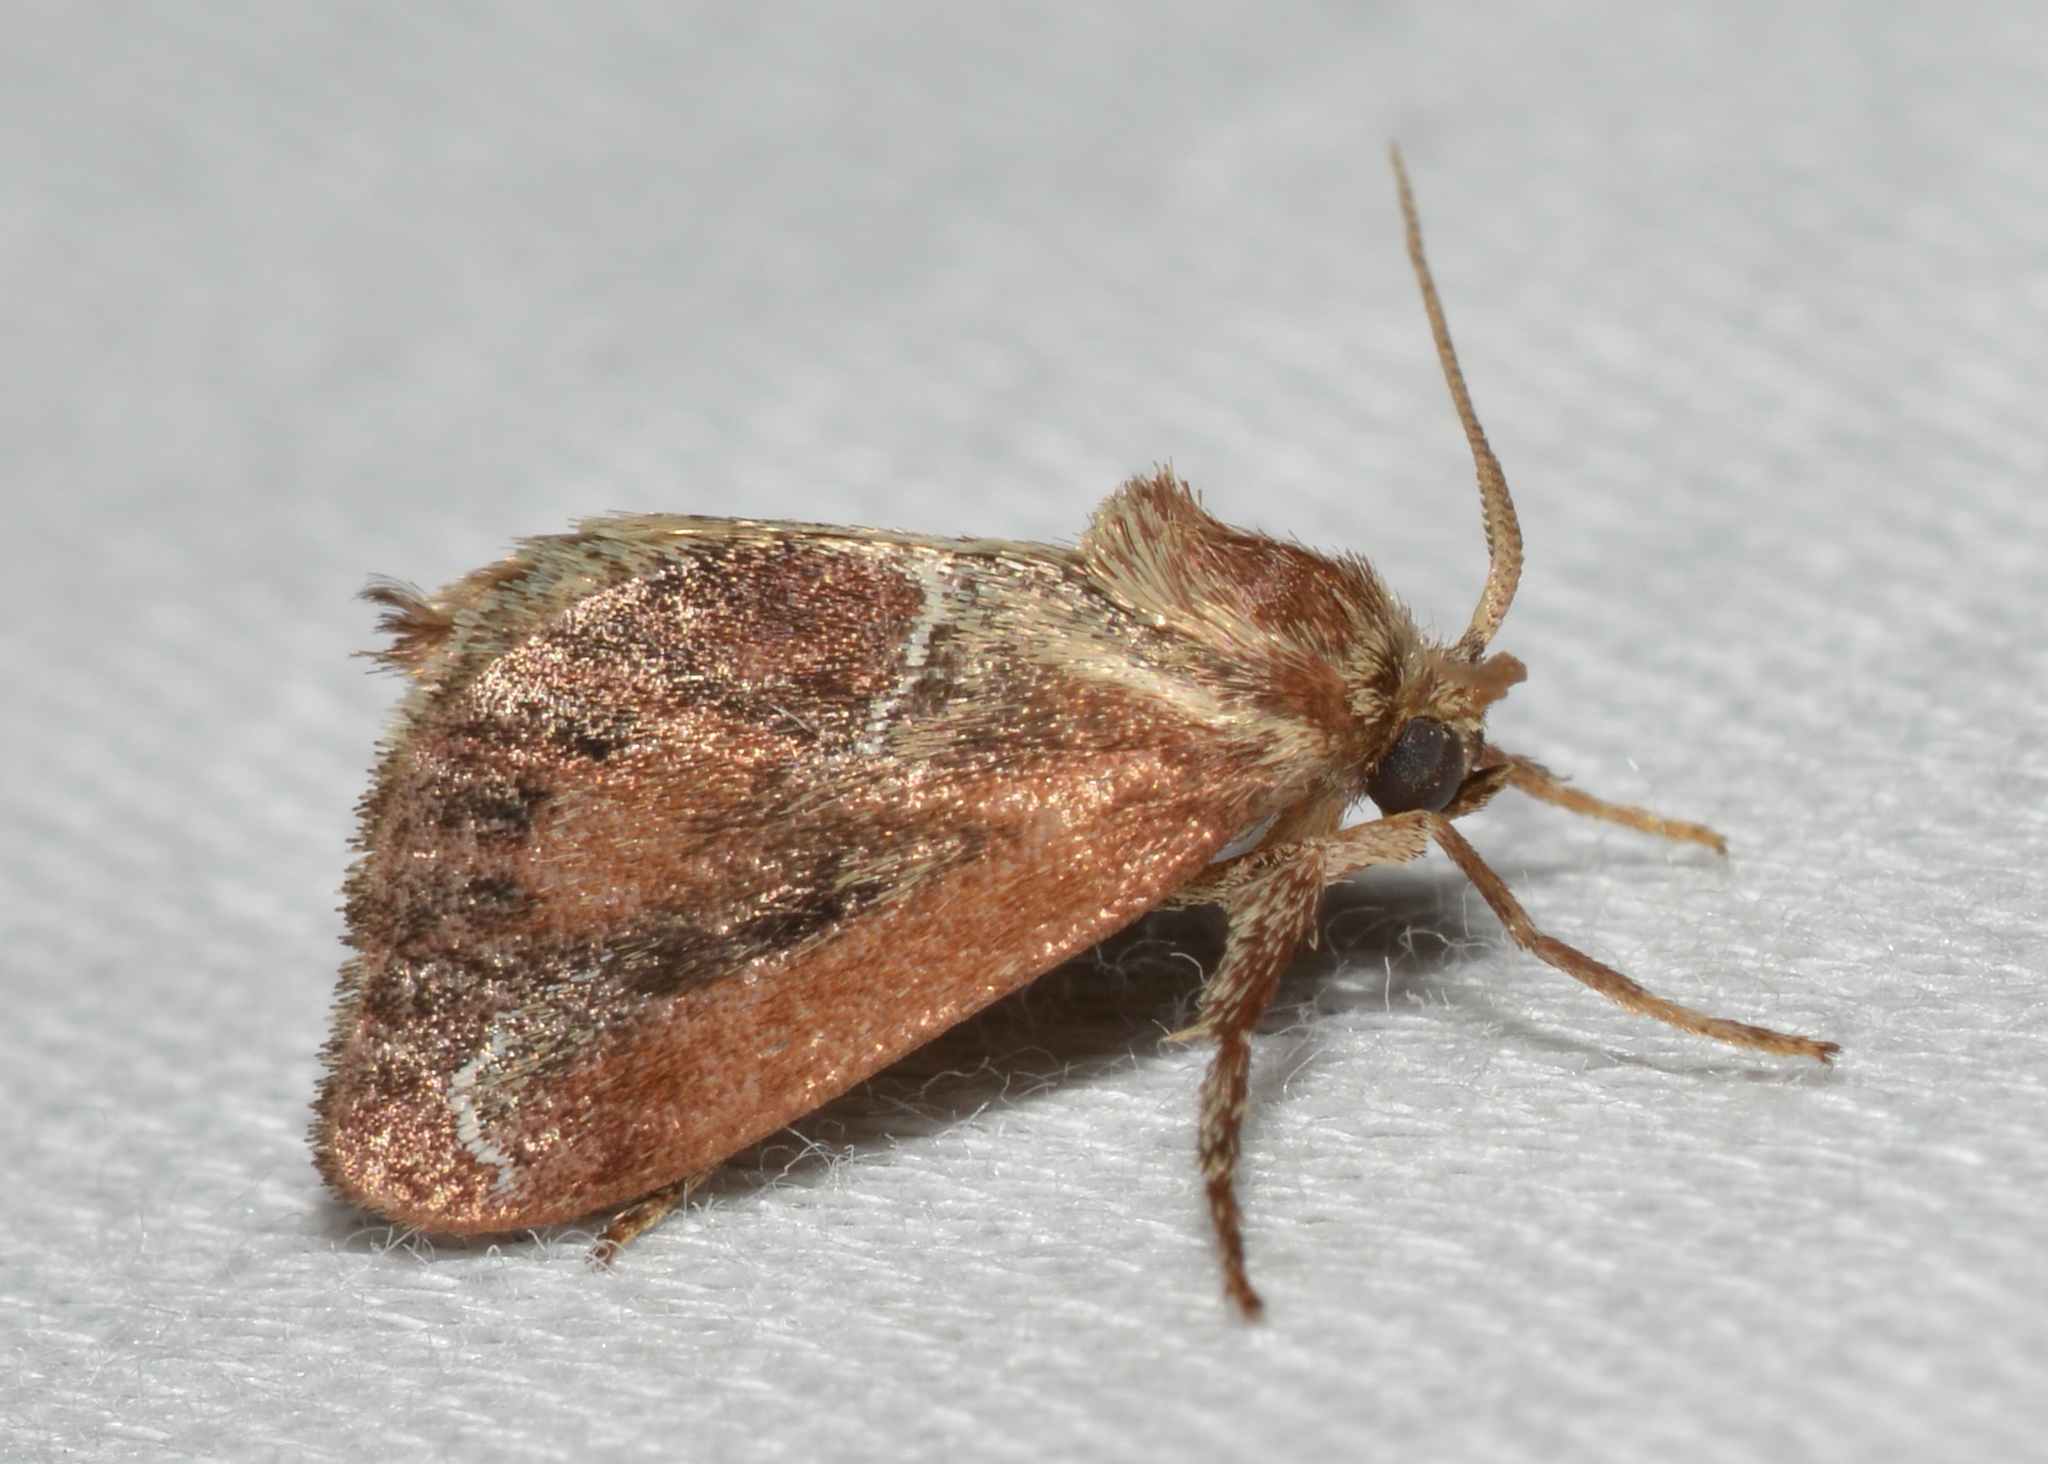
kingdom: Animalia
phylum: Arthropoda
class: Insecta
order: Lepidoptera
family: Limacodidae
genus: Adoneta
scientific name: Adoneta spinuloides
